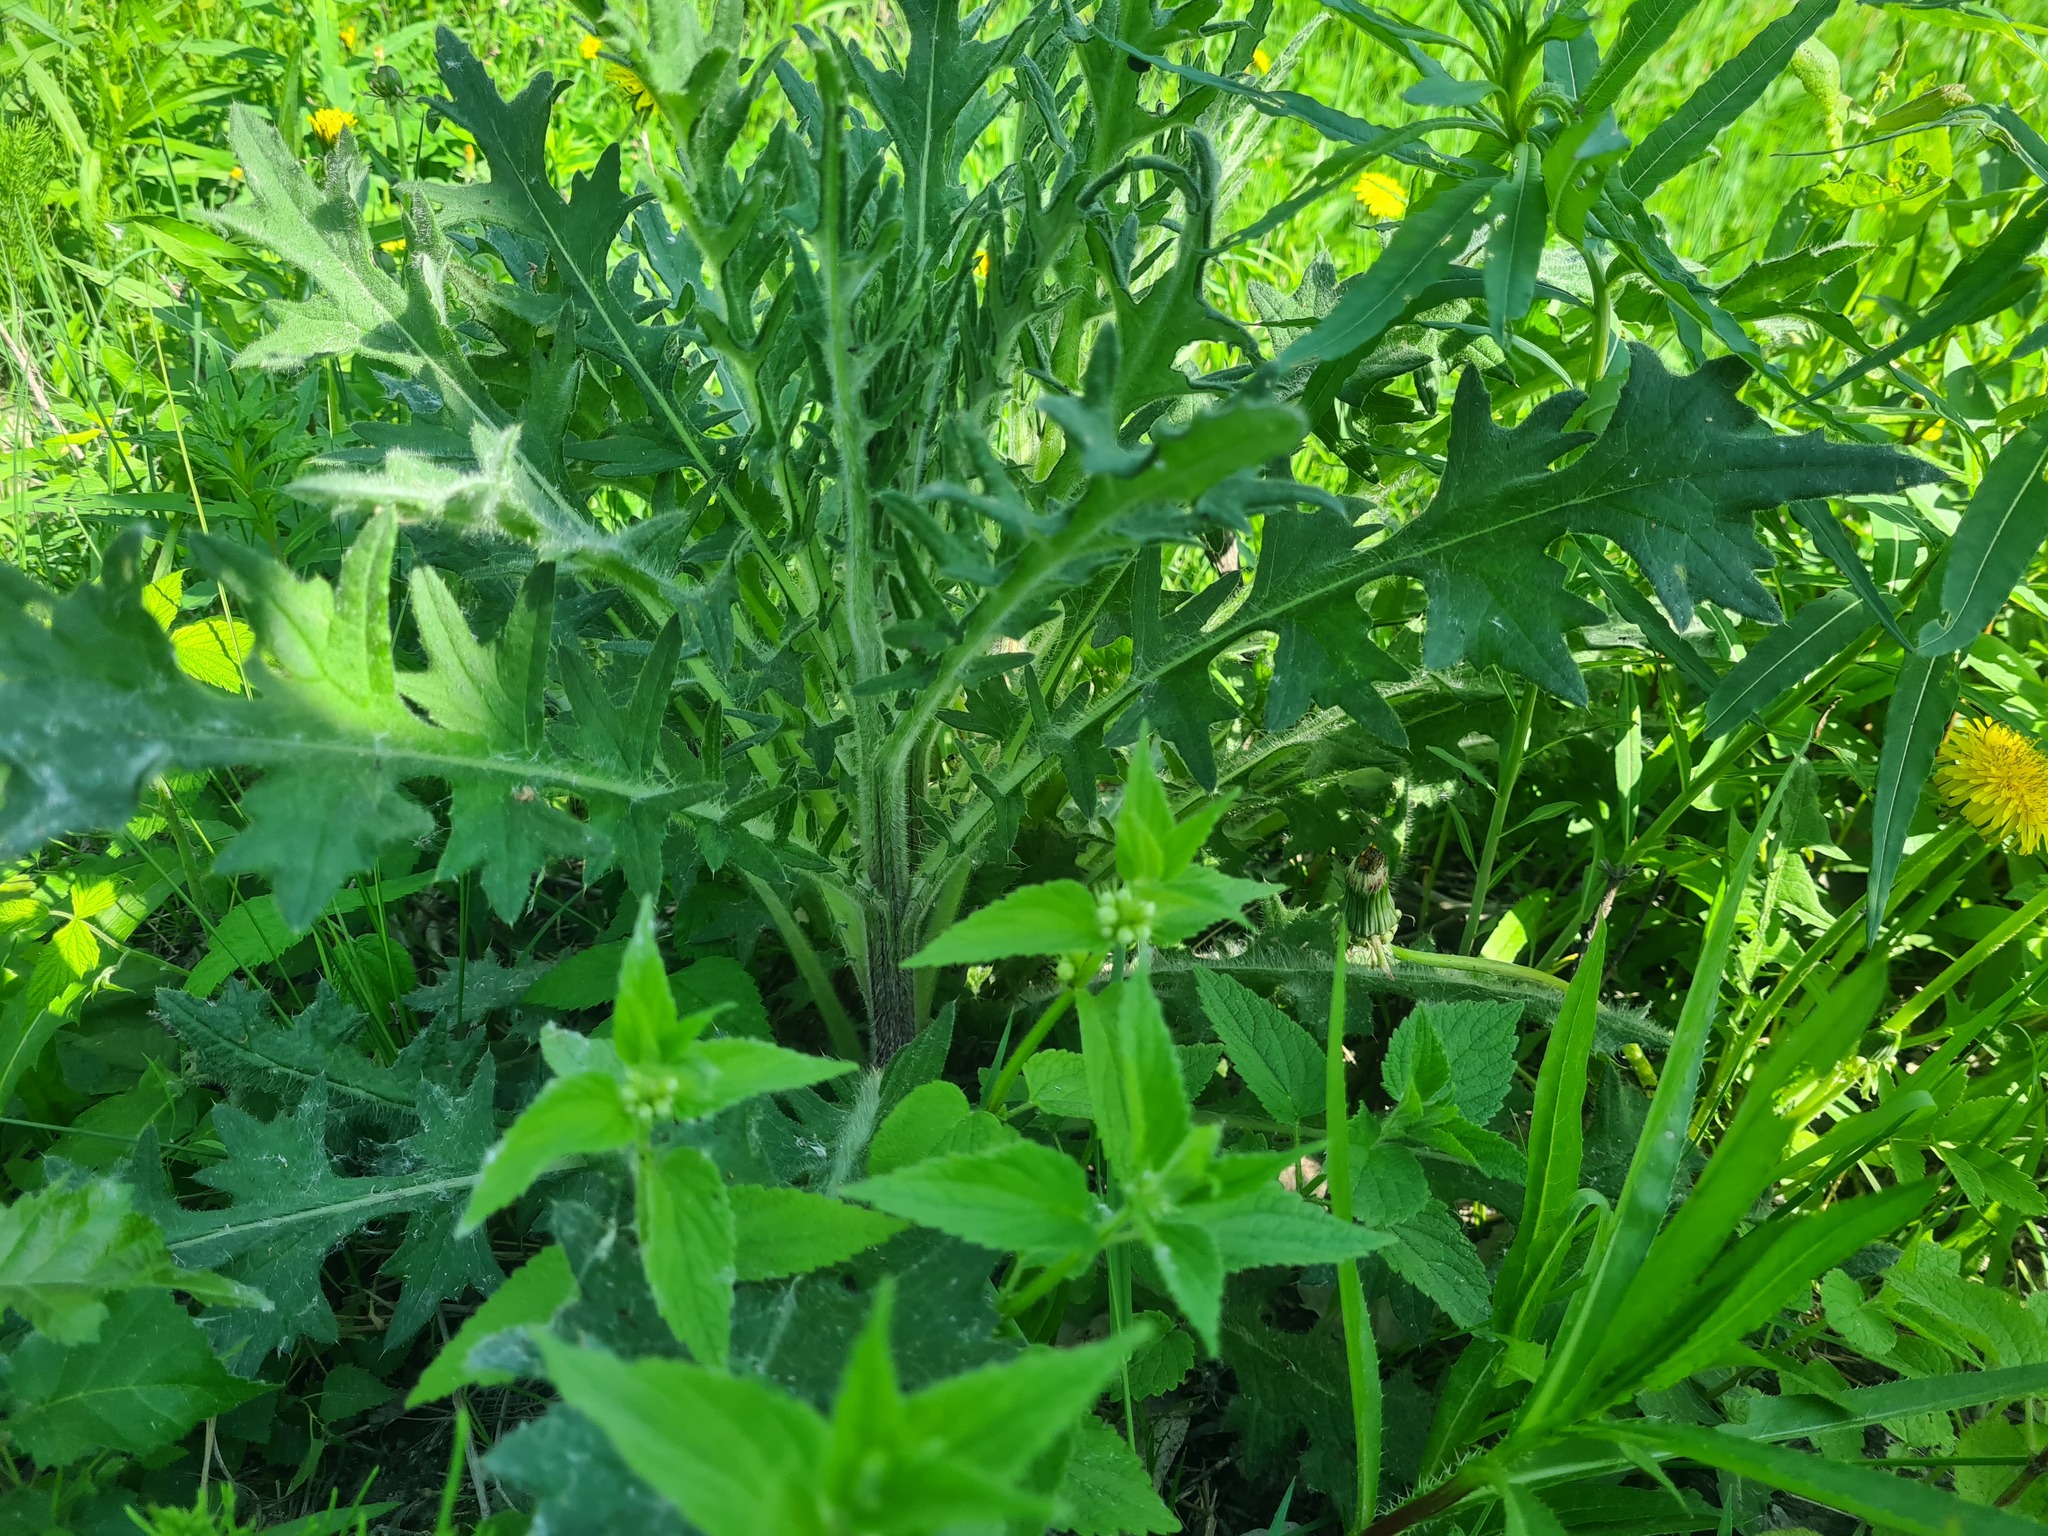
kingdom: Plantae
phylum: Tracheophyta
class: Magnoliopsida
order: Asterales
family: Asteraceae
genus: Cirsium
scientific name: Cirsium vulgare
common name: Bull thistle
